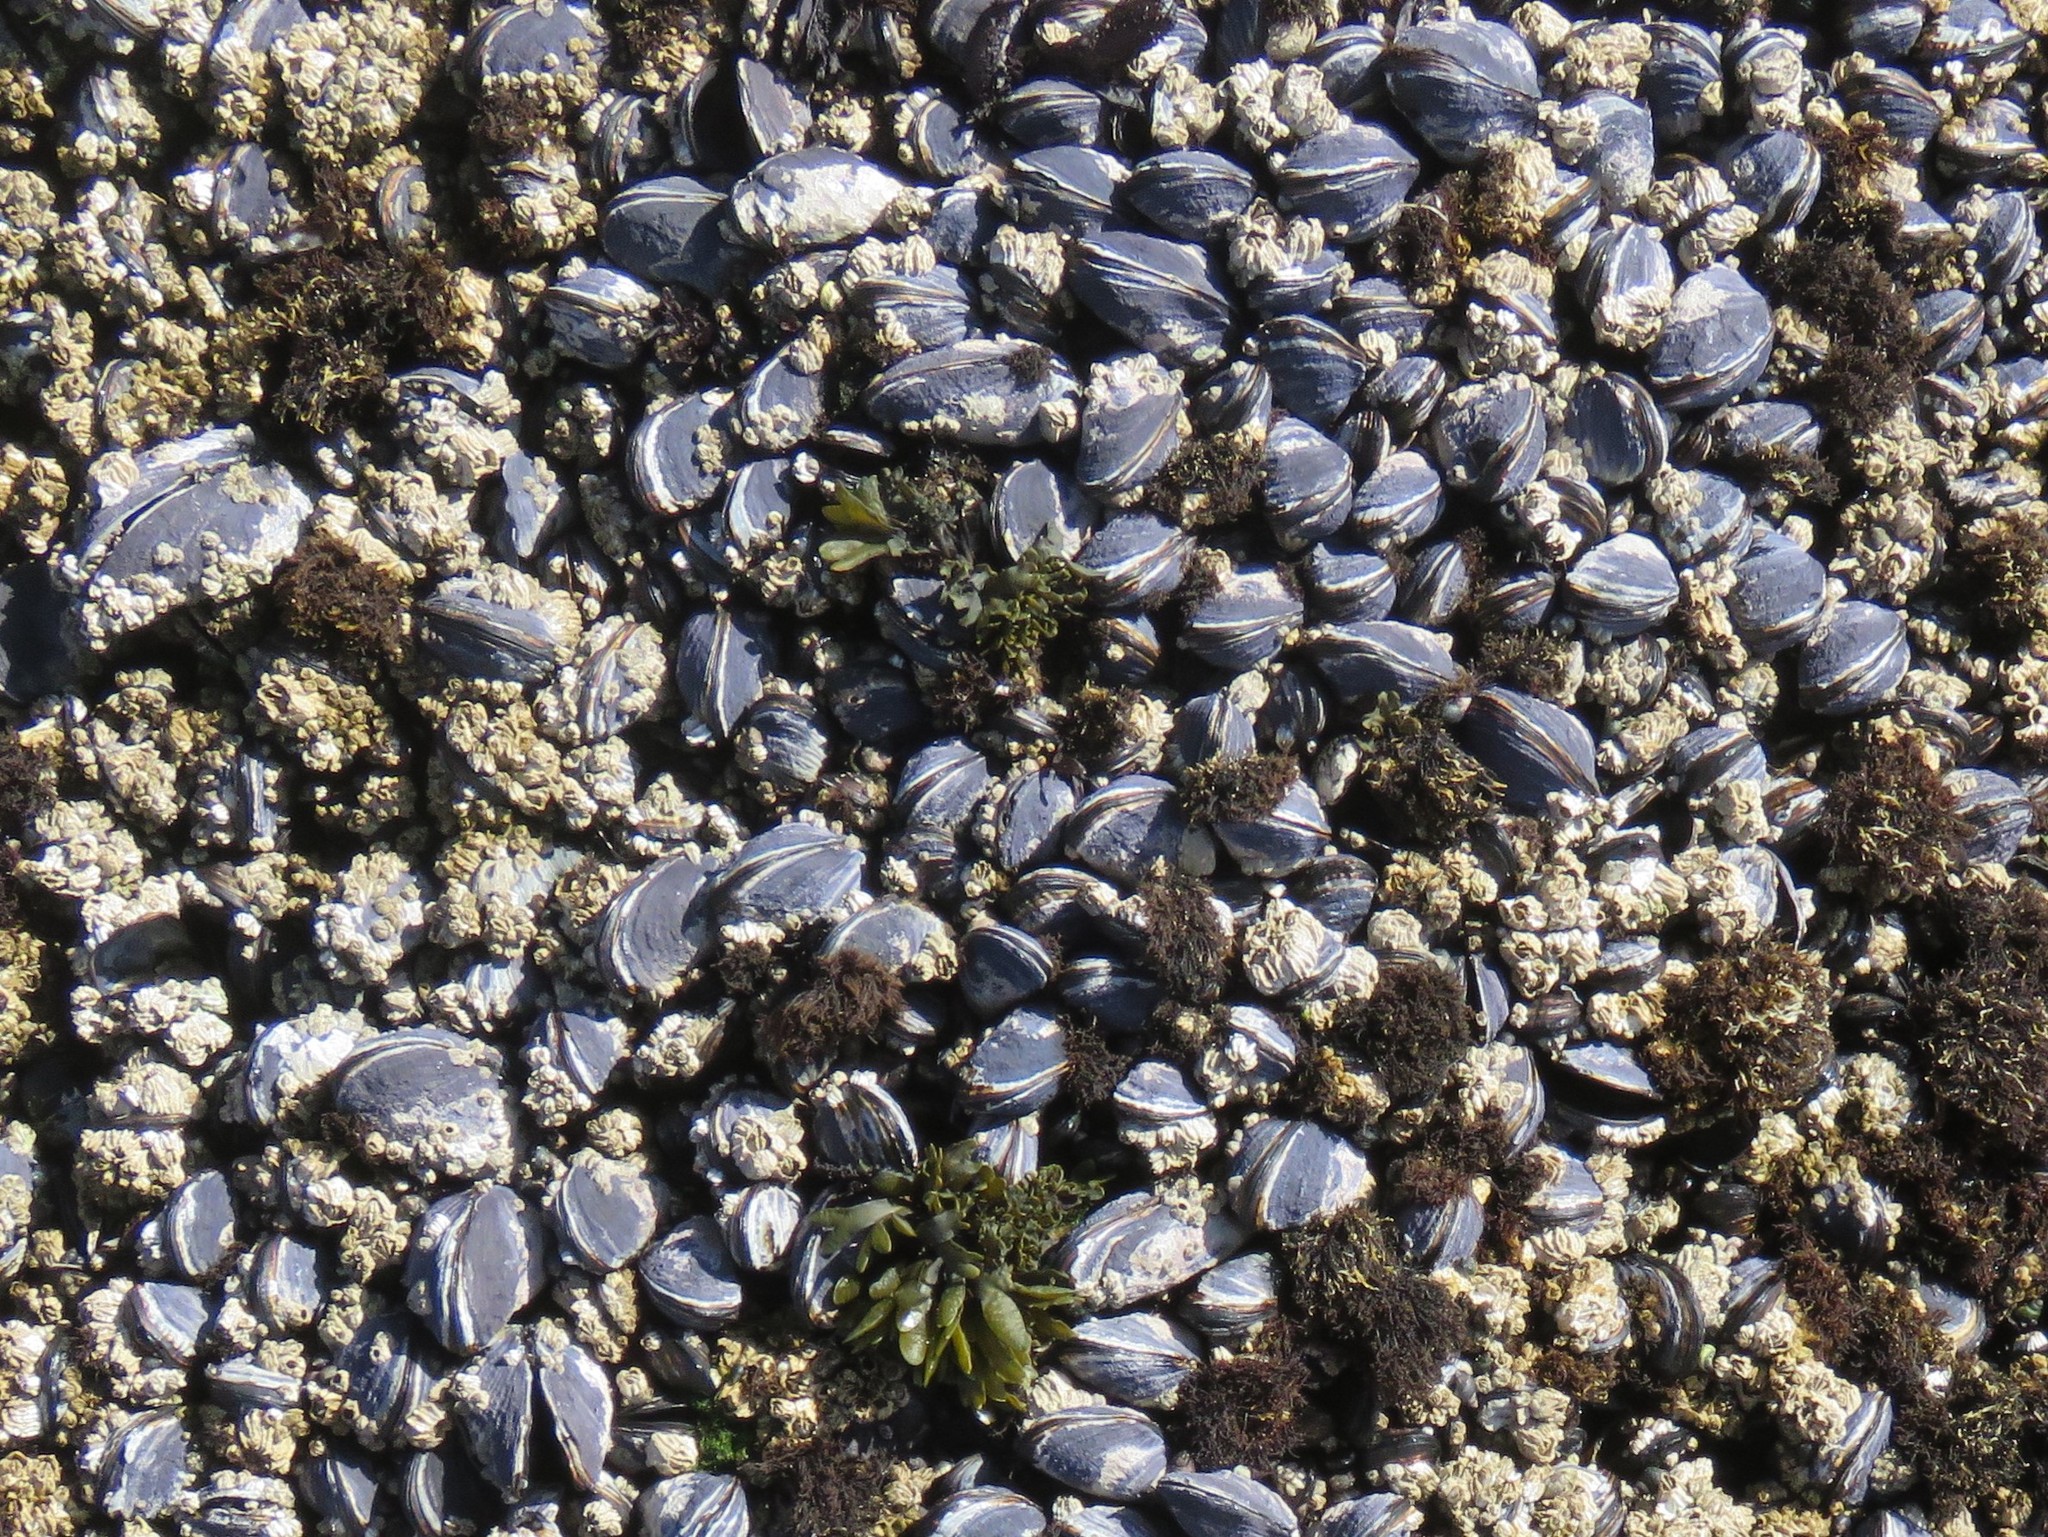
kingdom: Animalia
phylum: Mollusca
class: Bivalvia
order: Mytilida
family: Mytilidae
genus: Mytilus
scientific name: Mytilus californianus
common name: California mussel
